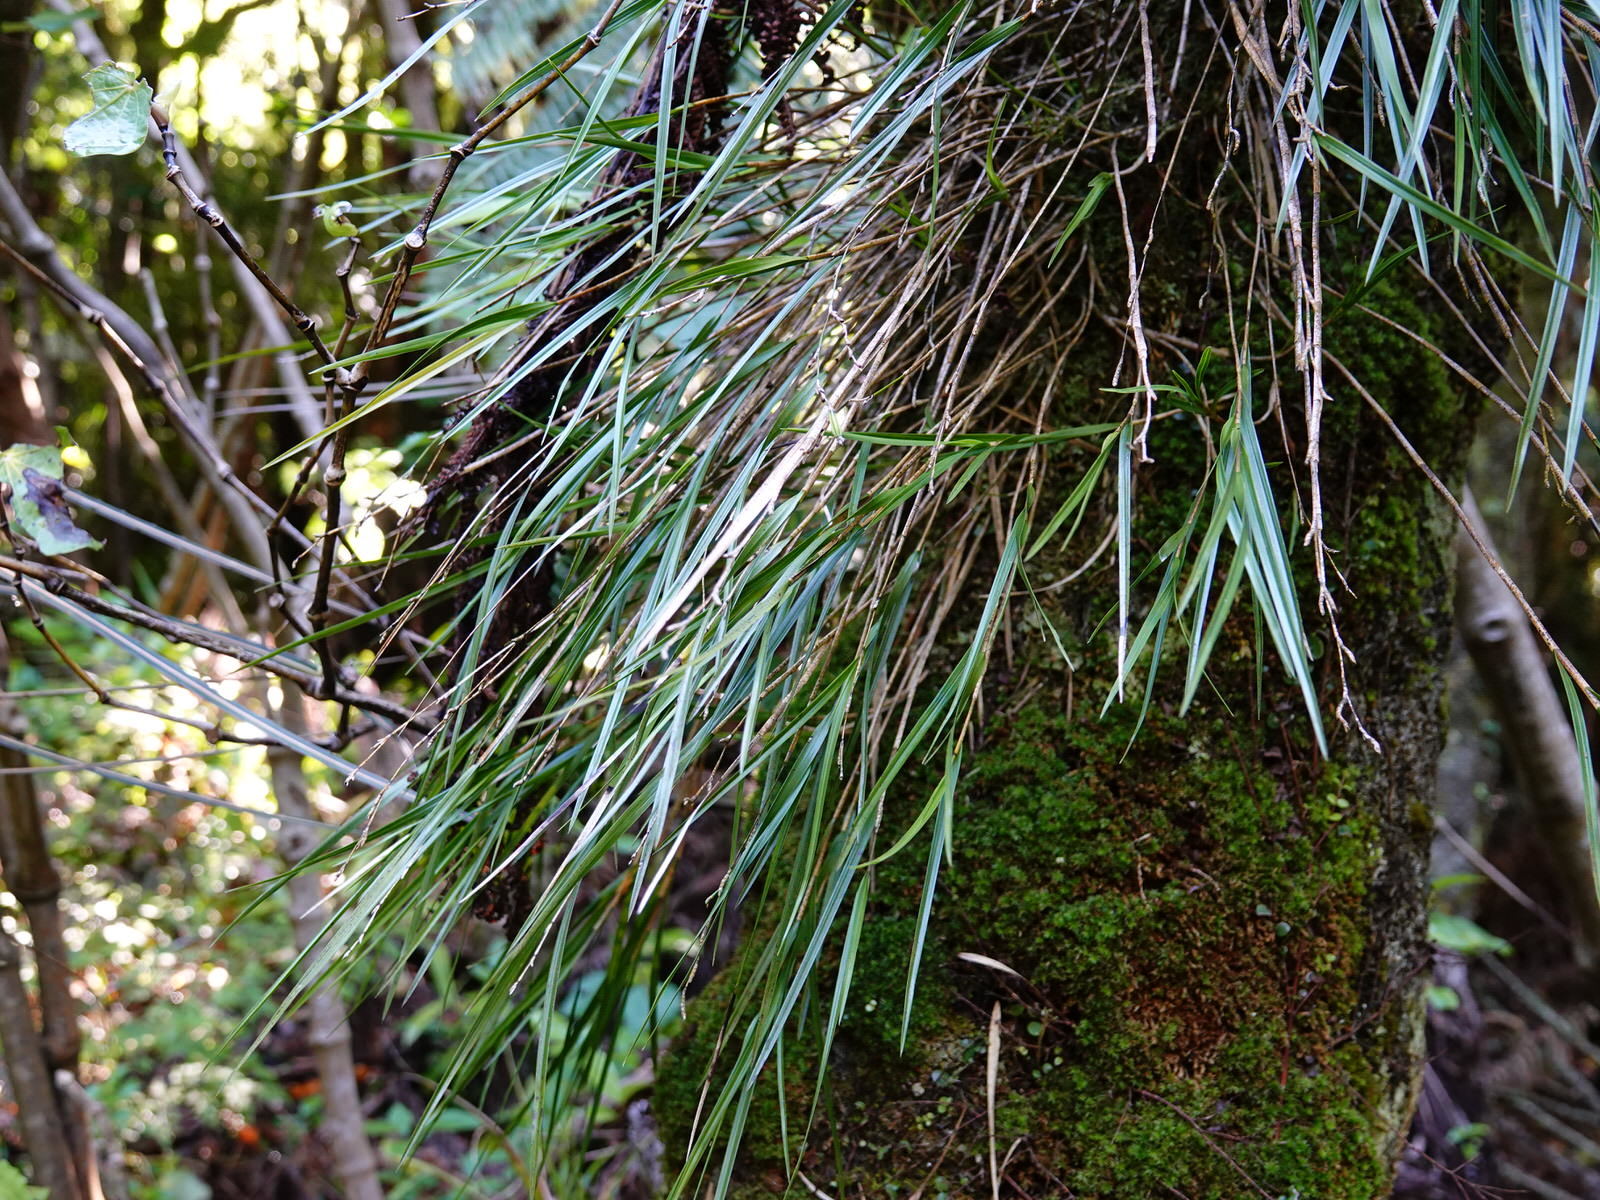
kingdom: Plantae
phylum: Tracheophyta
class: Liliopsida
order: Asparagales
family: Orchidaceae
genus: Earina
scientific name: Earina mucronata
